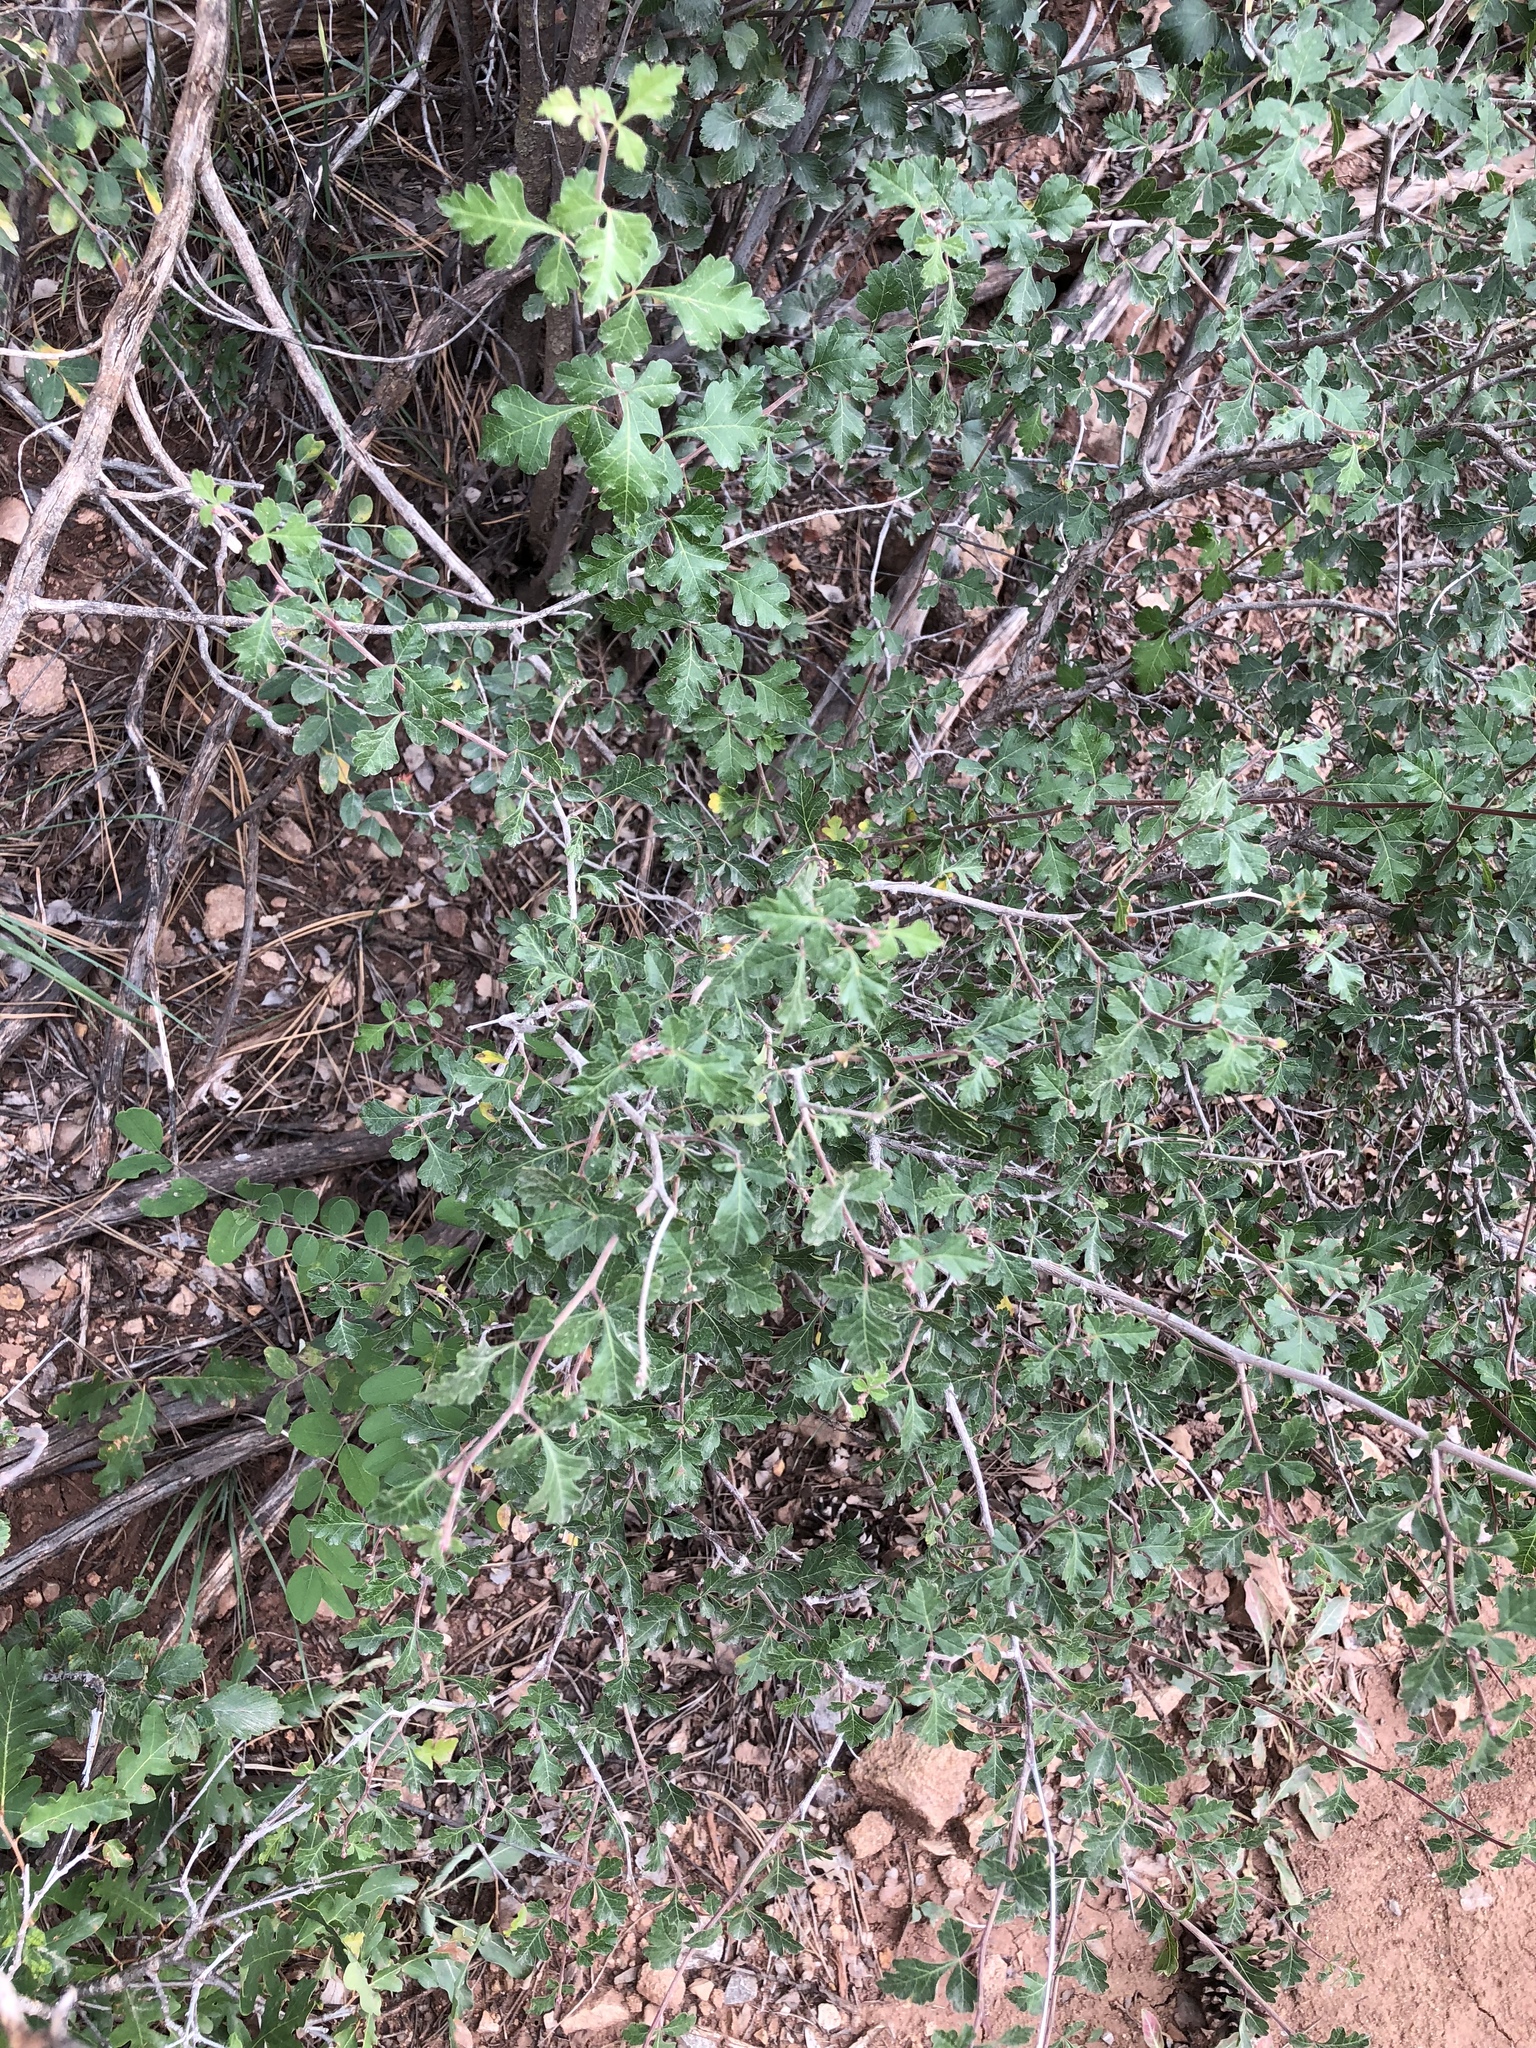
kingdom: Plantae
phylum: Tracheophyta
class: Magnoliopsida
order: Sapindales
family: Anacardiaceae
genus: Rhus
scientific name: Rhus aromatica
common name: Aromatic sumac
